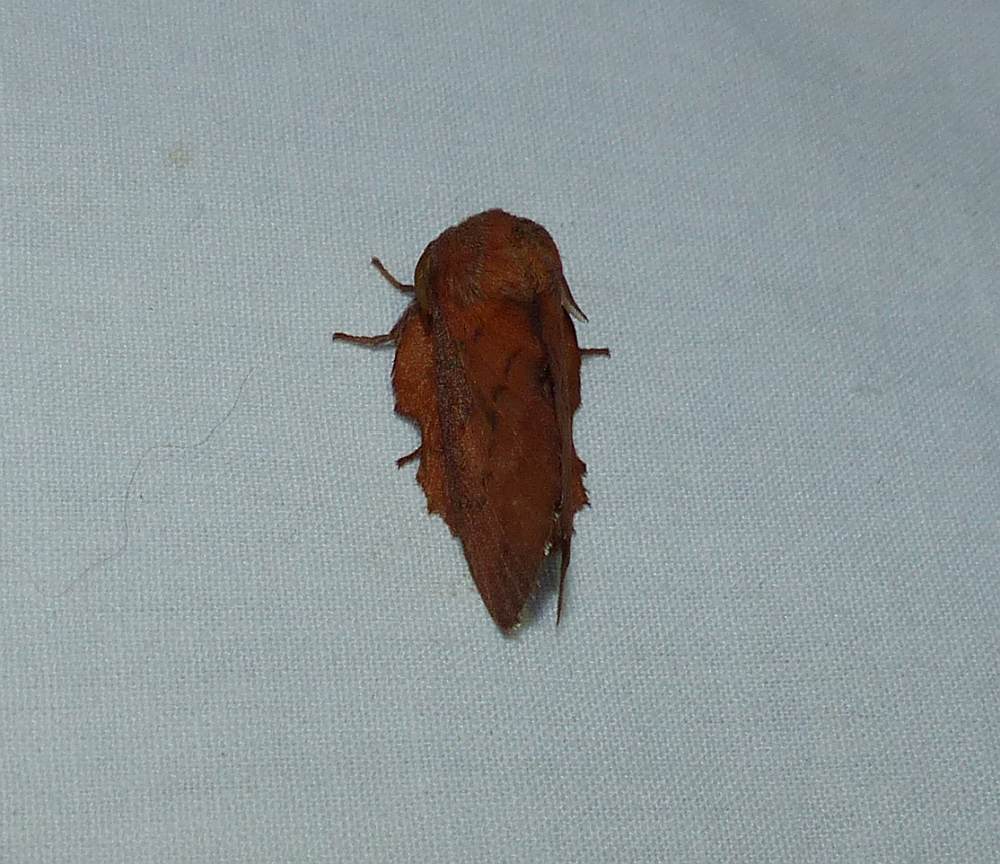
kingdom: Animalia
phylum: Arthropoda
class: Insecta
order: Lepidoptera
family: Lasiocampidae
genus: Phyllodesma
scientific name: Phyllodesma americana
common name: American lappet moth
